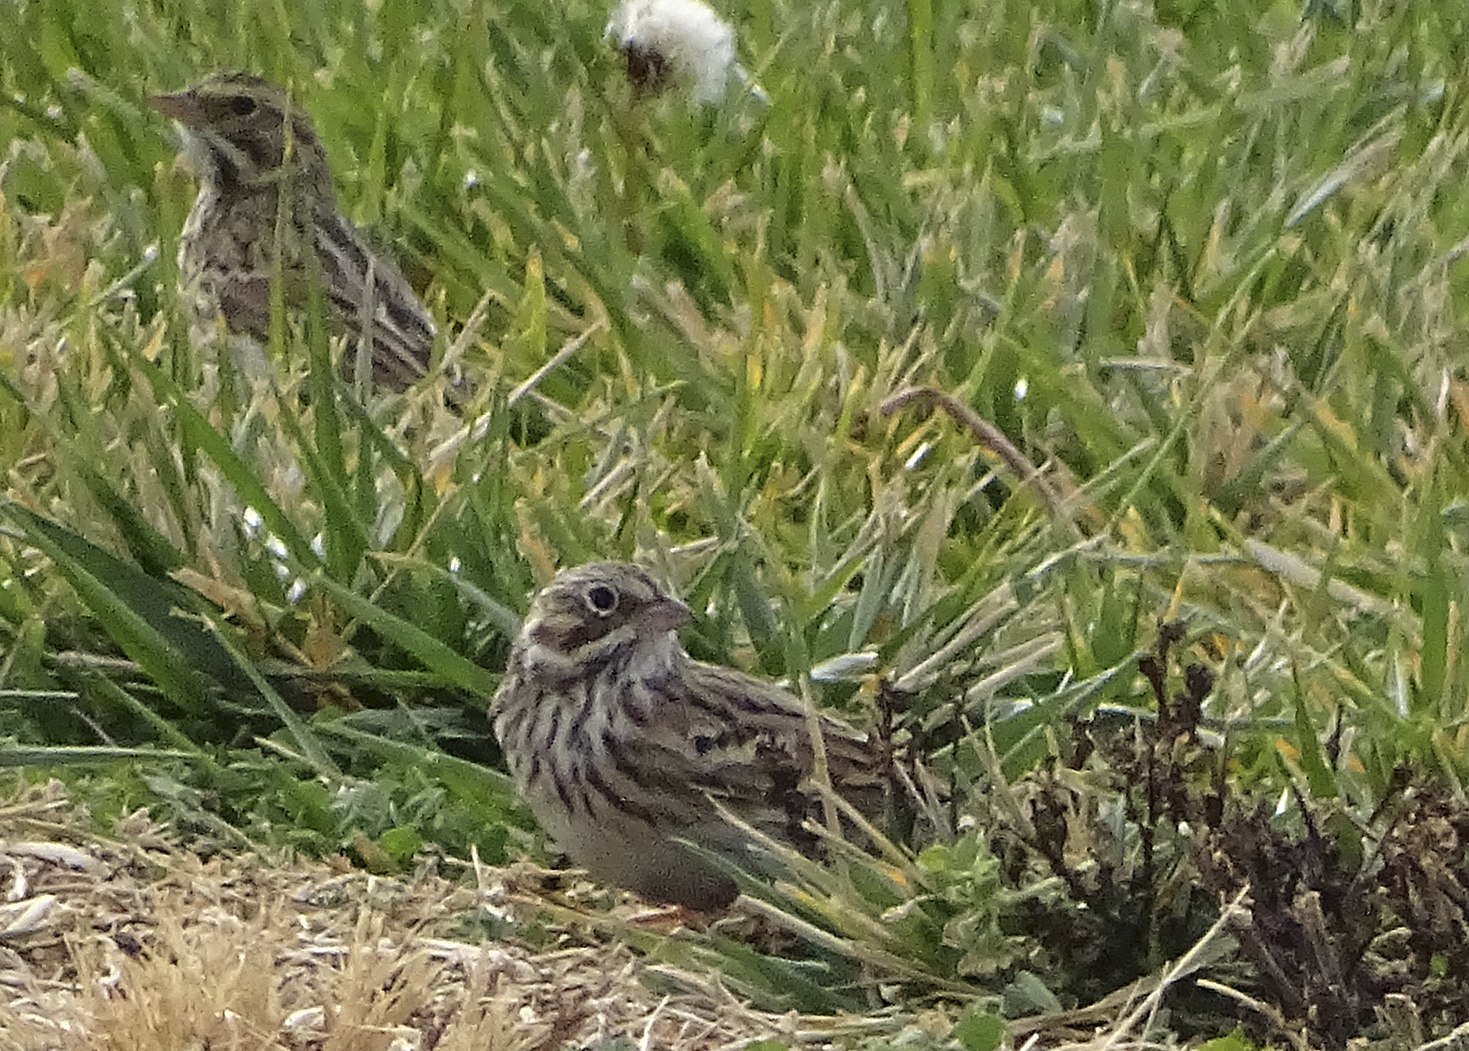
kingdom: Animalia
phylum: Chordata
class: Aves
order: Passeriformes
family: Passerellidae
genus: Pooecetes
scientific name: Pooecetes gramineus
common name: Vesper sparrow
